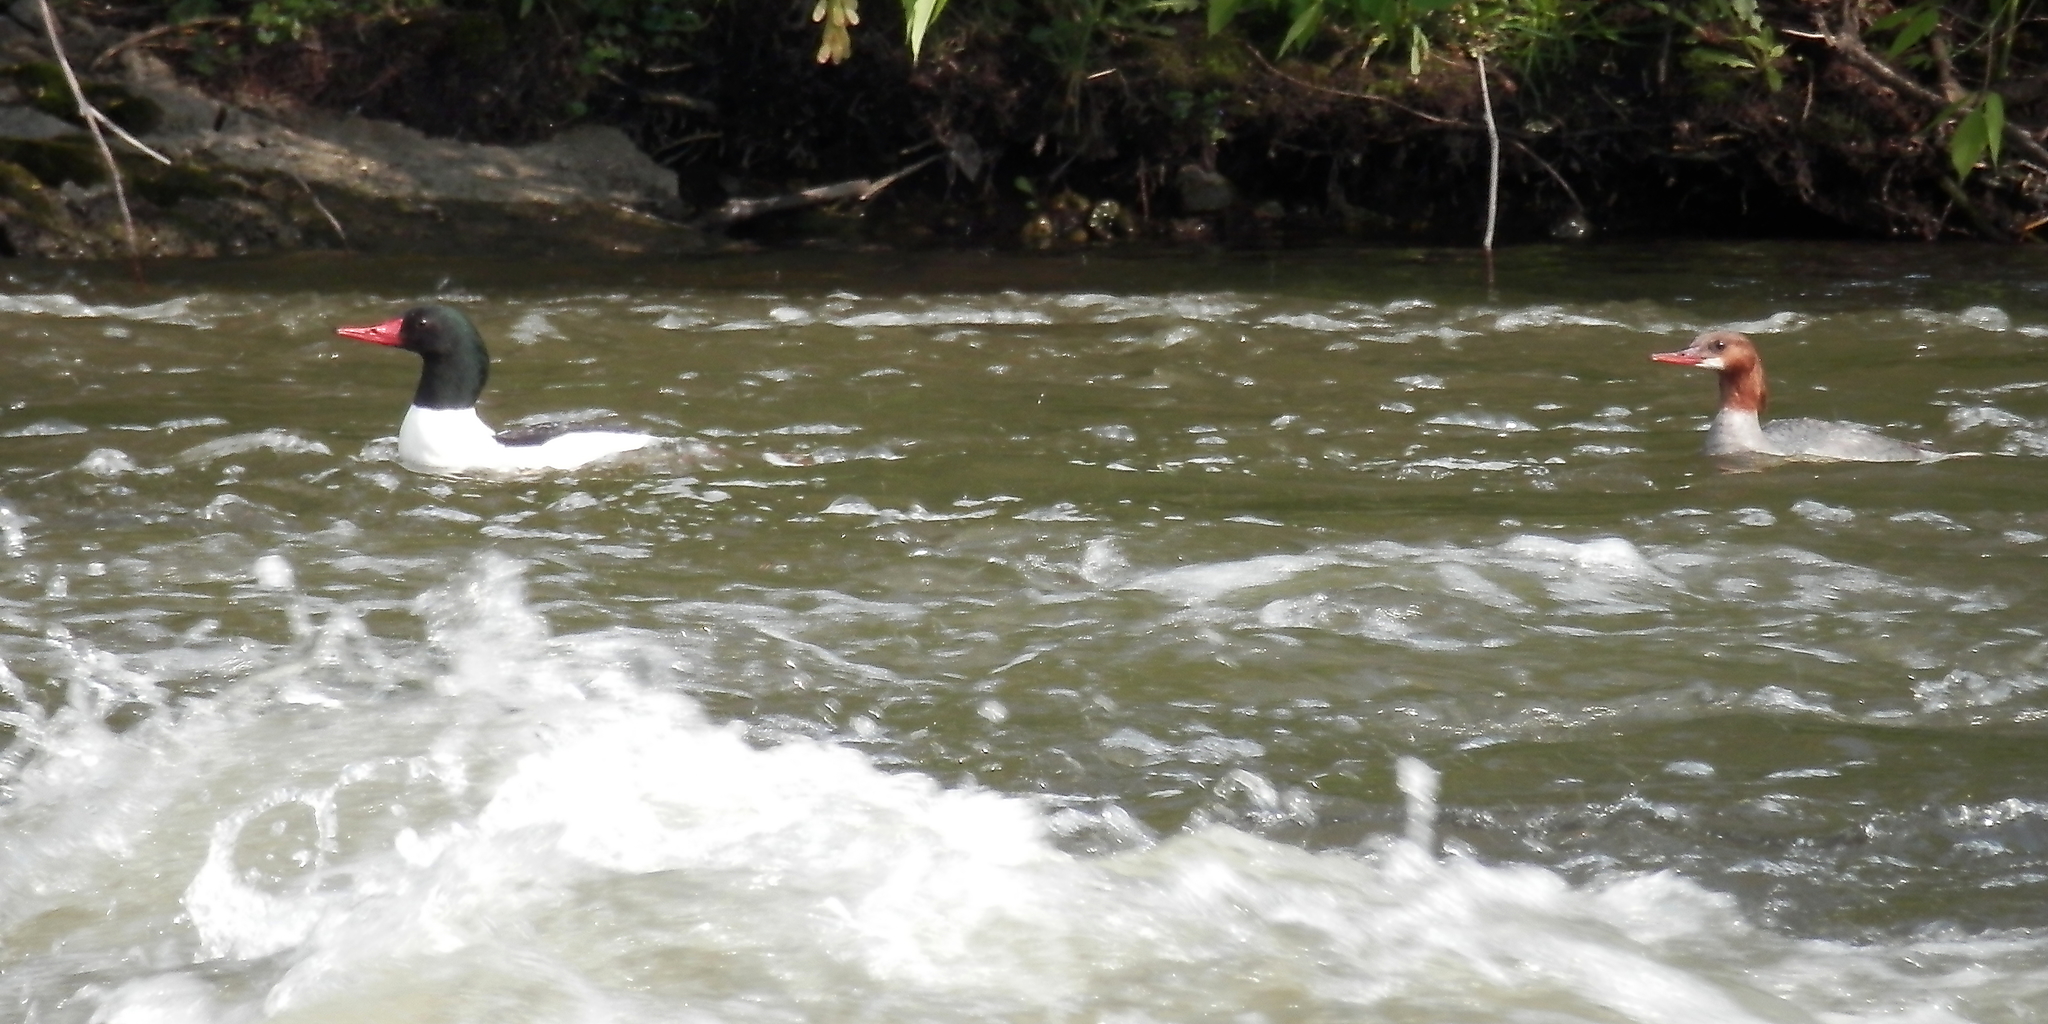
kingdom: Animalia
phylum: Chordata
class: Aves
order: Anseriformes
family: Anatidae
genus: Mergus
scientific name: Mergus merganser
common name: Common merganser
